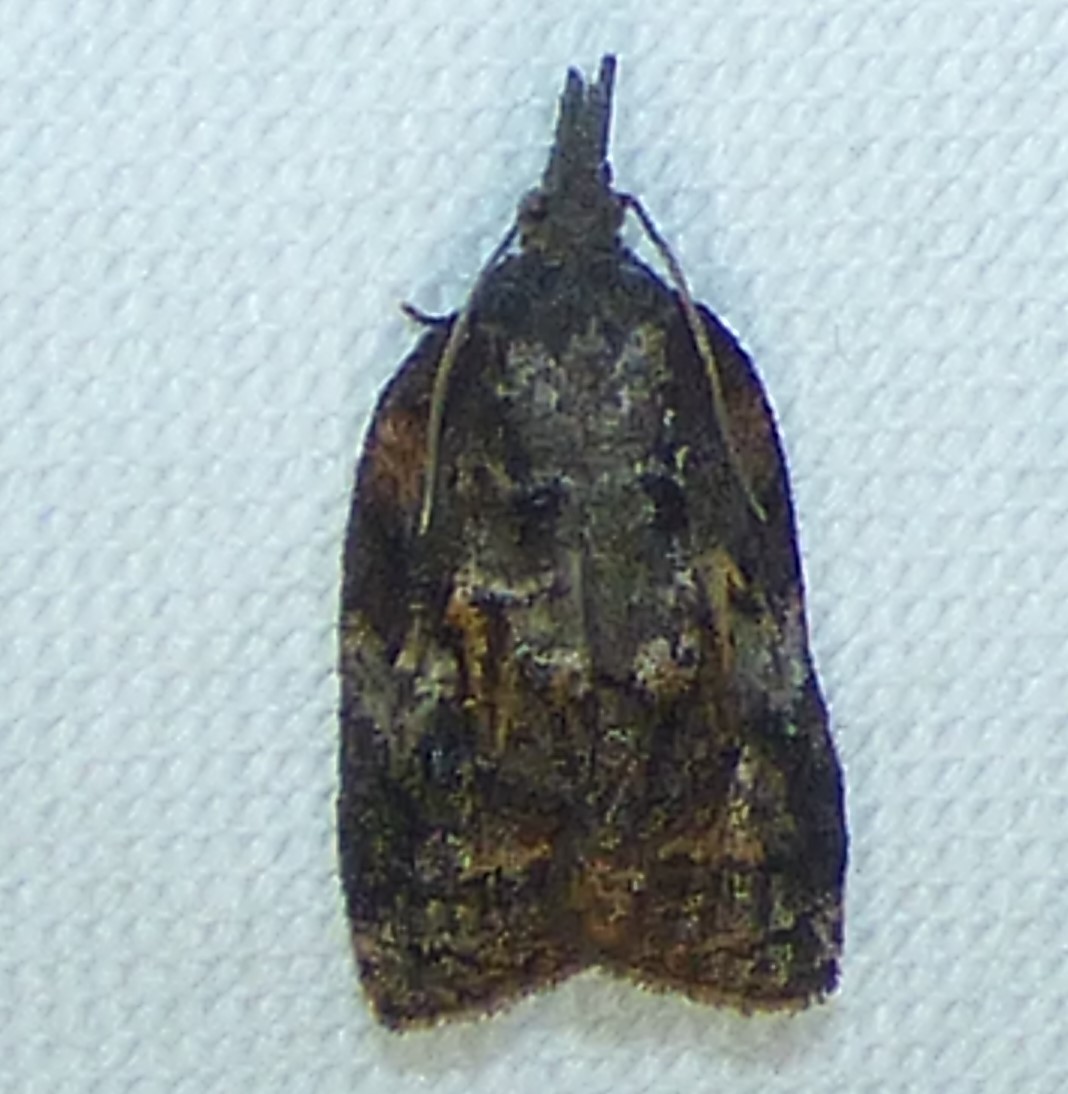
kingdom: Animalia
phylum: Arthropoda
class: Insecta
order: Lepidoptera
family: Tortricidae
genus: Platynota
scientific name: Platynota idaeusalis
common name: Tufted apple bud moth
